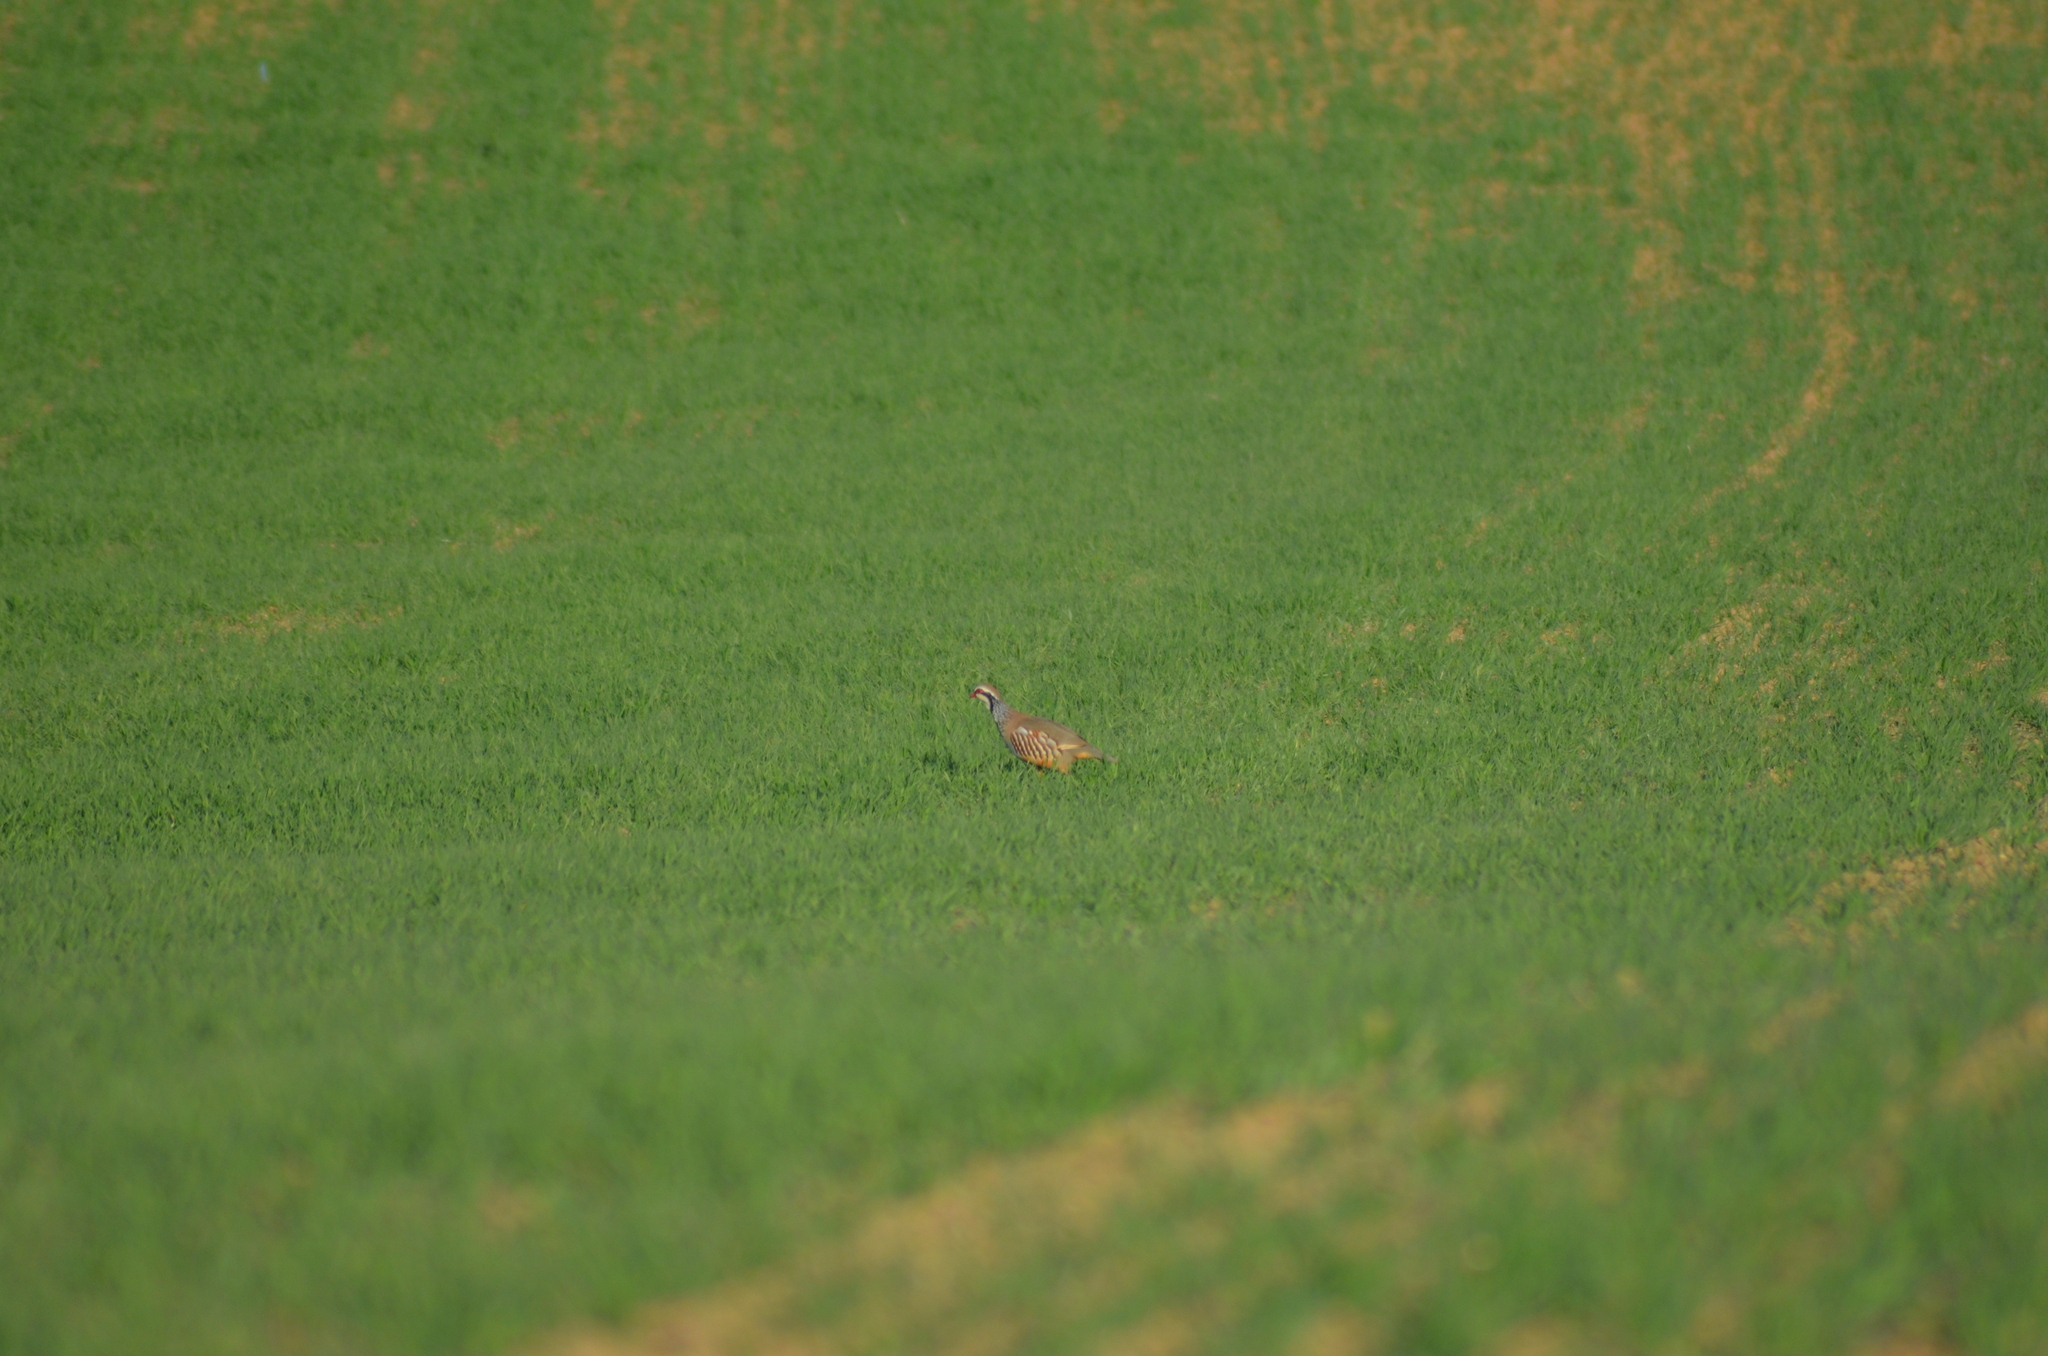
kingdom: Animalia
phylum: Chordata
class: Aves
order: Galliformes
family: Phasianidae
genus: Alectoris
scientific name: Alectoris rufa
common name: Red-legged partridge
